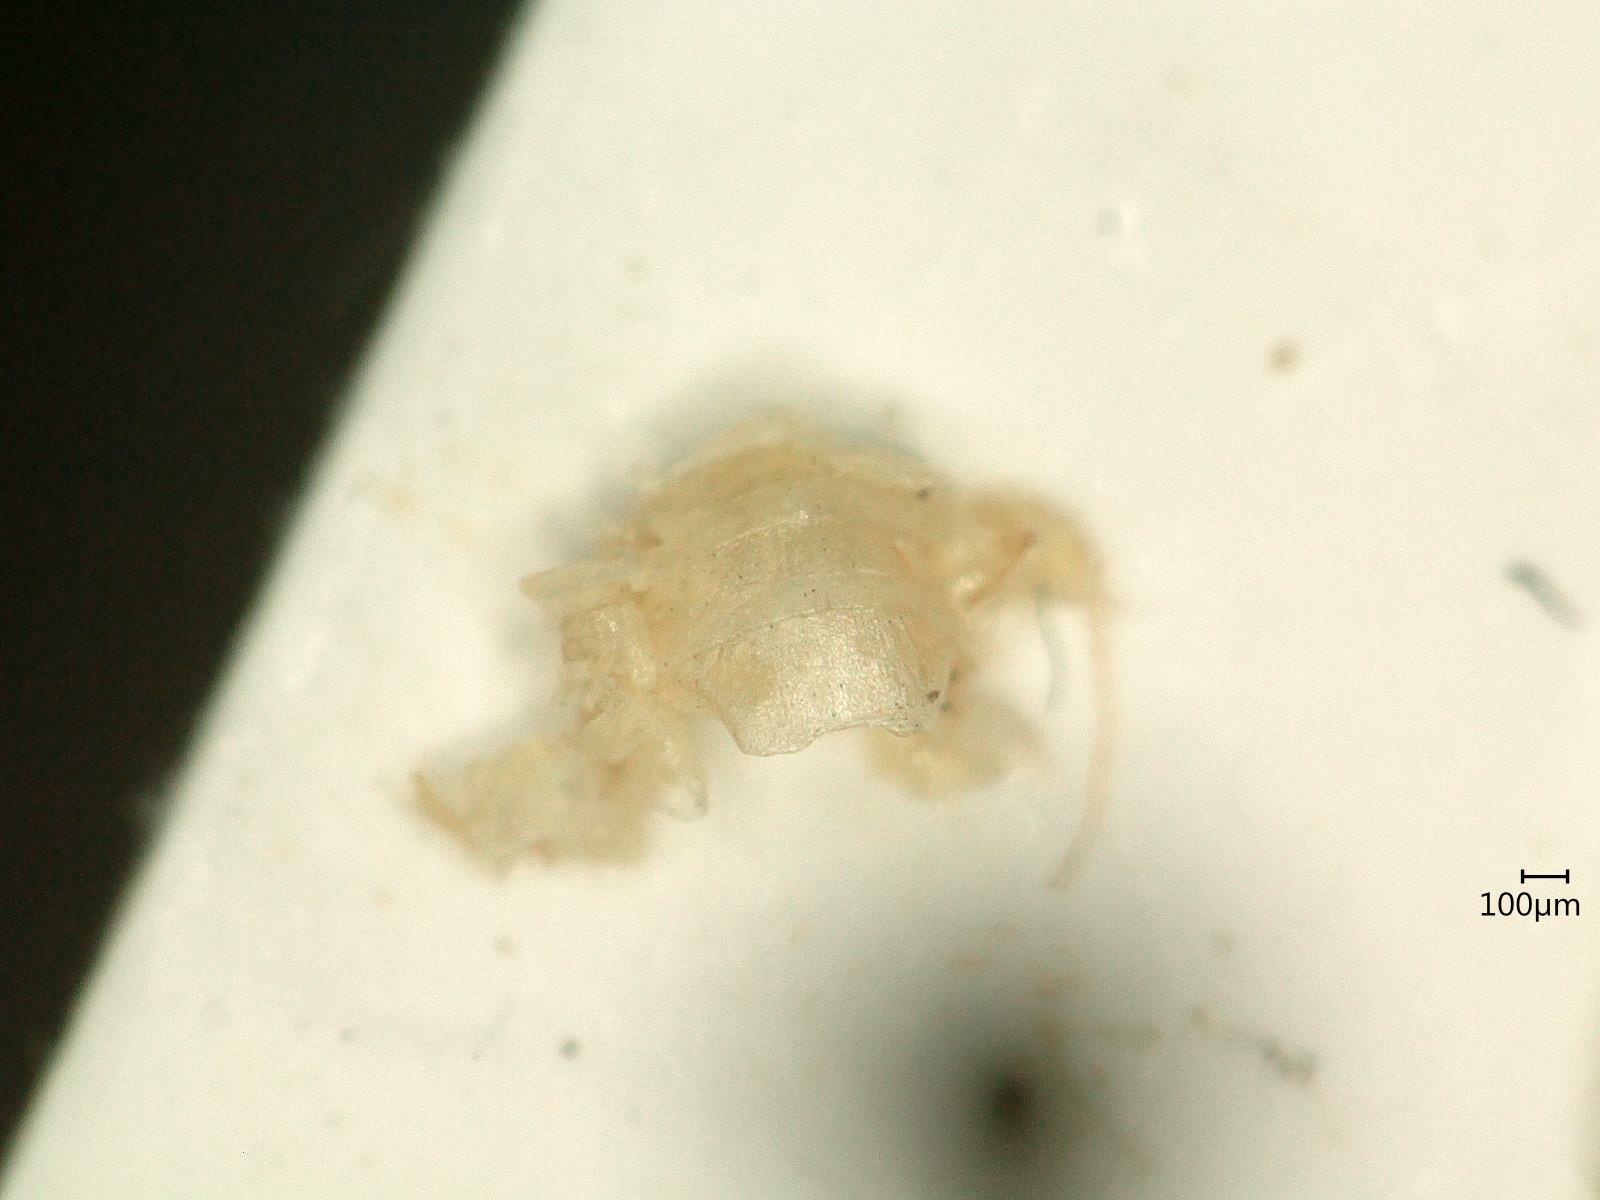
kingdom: Animalia
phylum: Arthropoda
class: Insecta
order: Hemiptera
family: Cicadellidae
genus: Oncopsis
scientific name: Oncopsis alni
